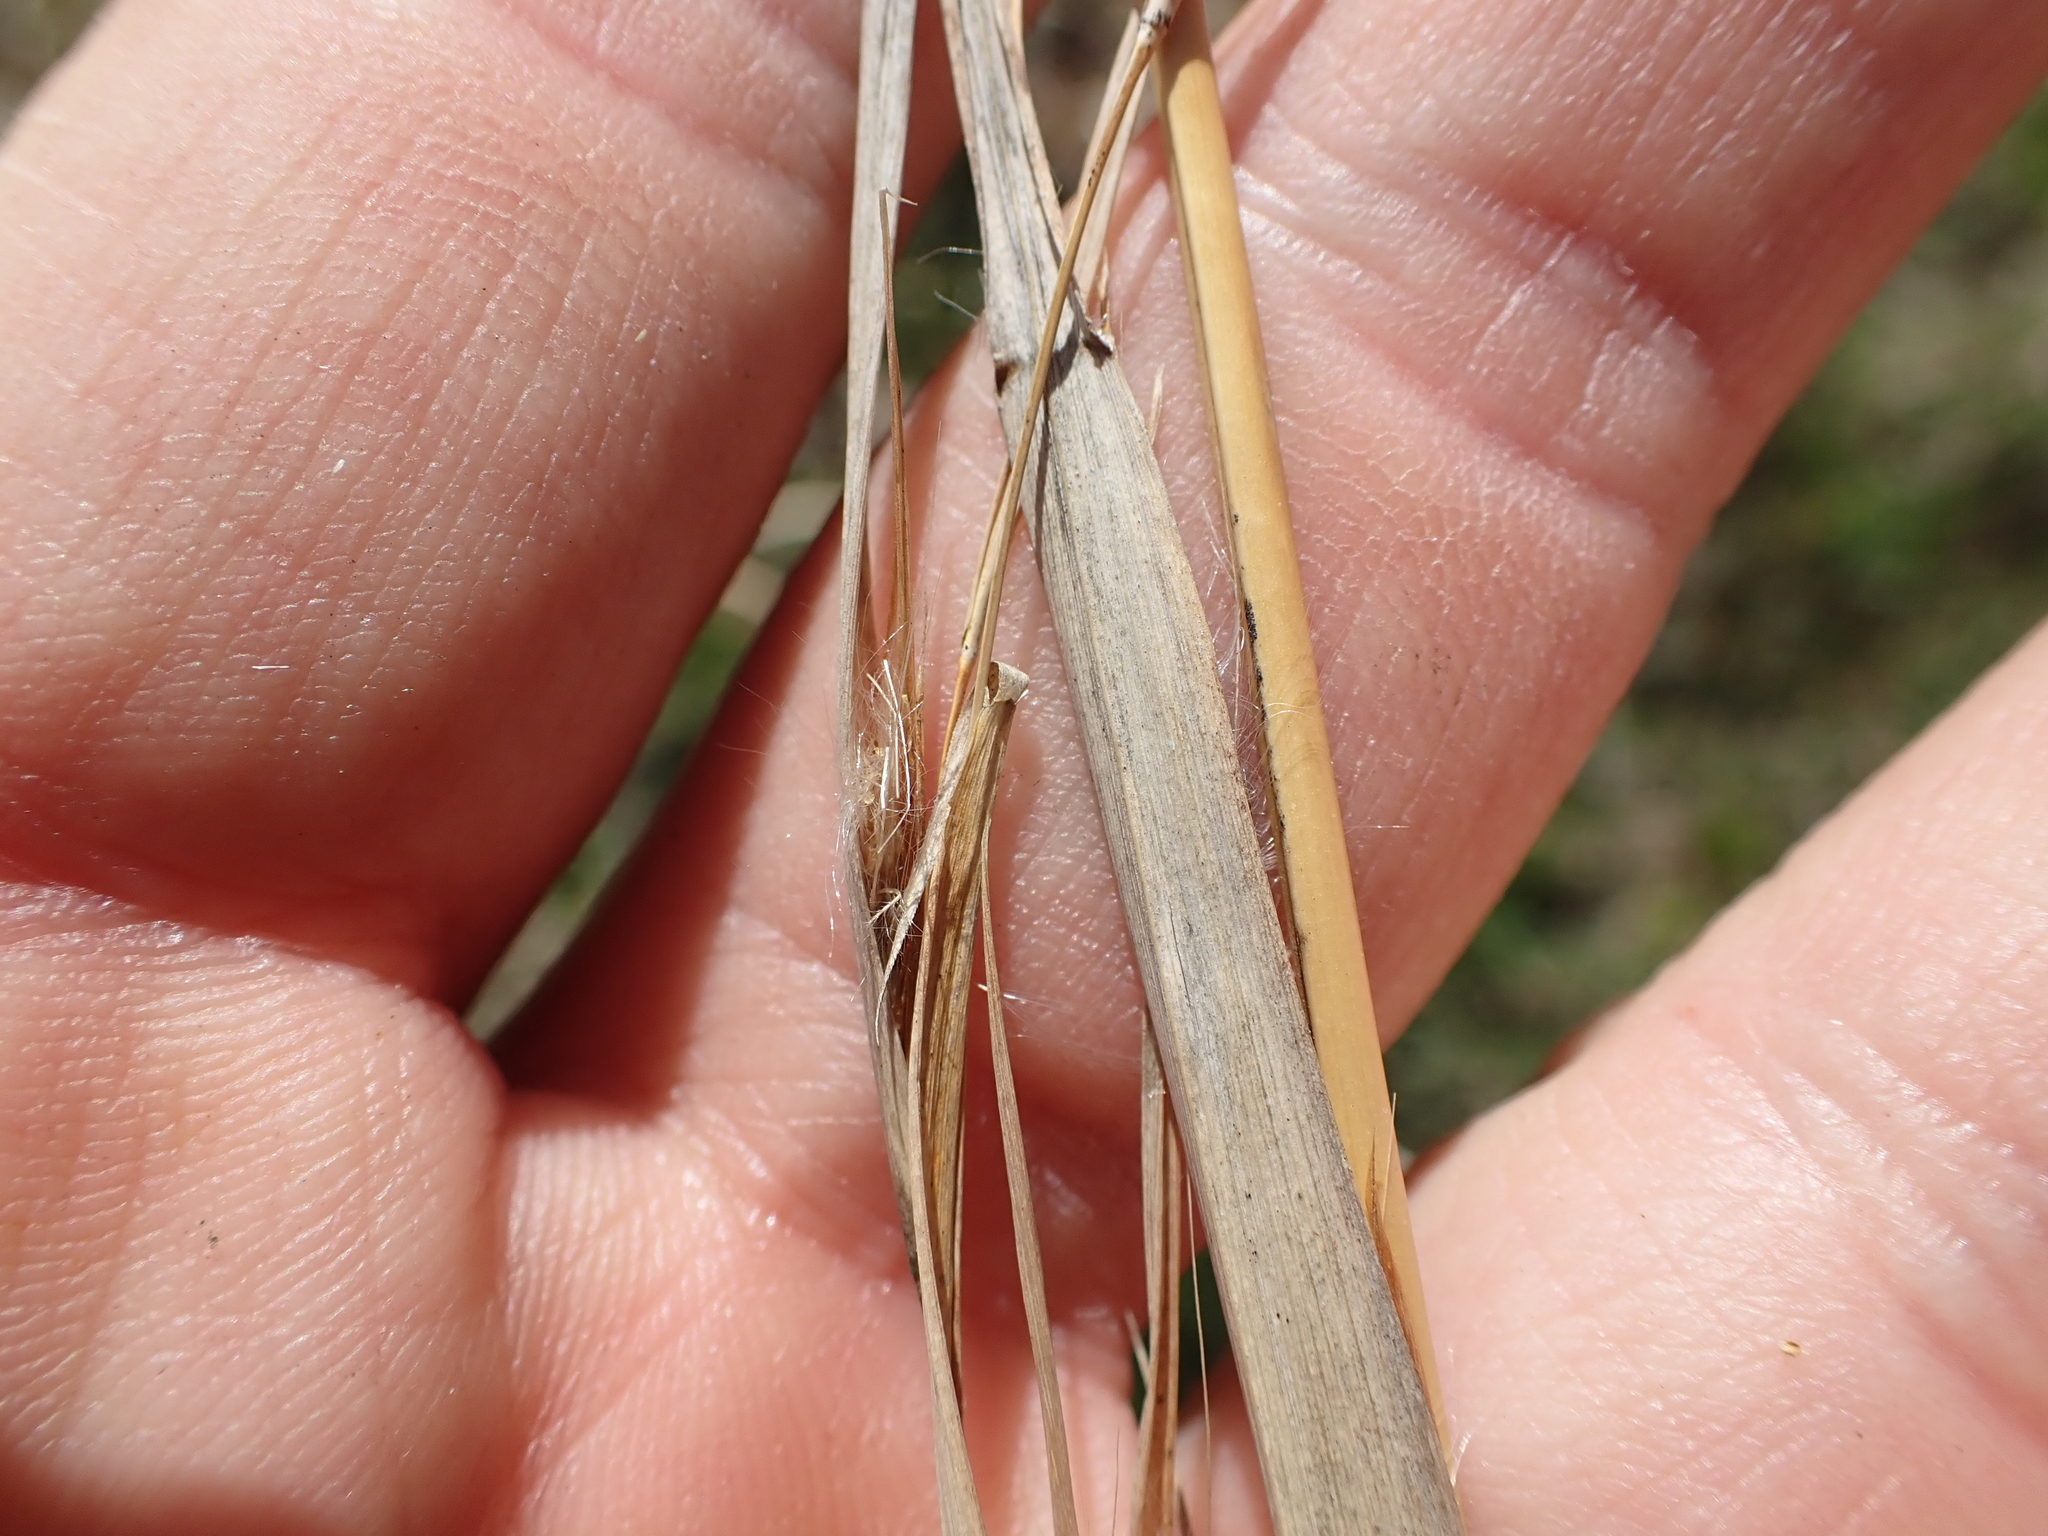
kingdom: Plantae
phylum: Tracheophyta
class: Liliopsida
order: Poales
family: Poaceae
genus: Andropogon
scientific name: Andropogon virginicus
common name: Broomsedge bluestem
